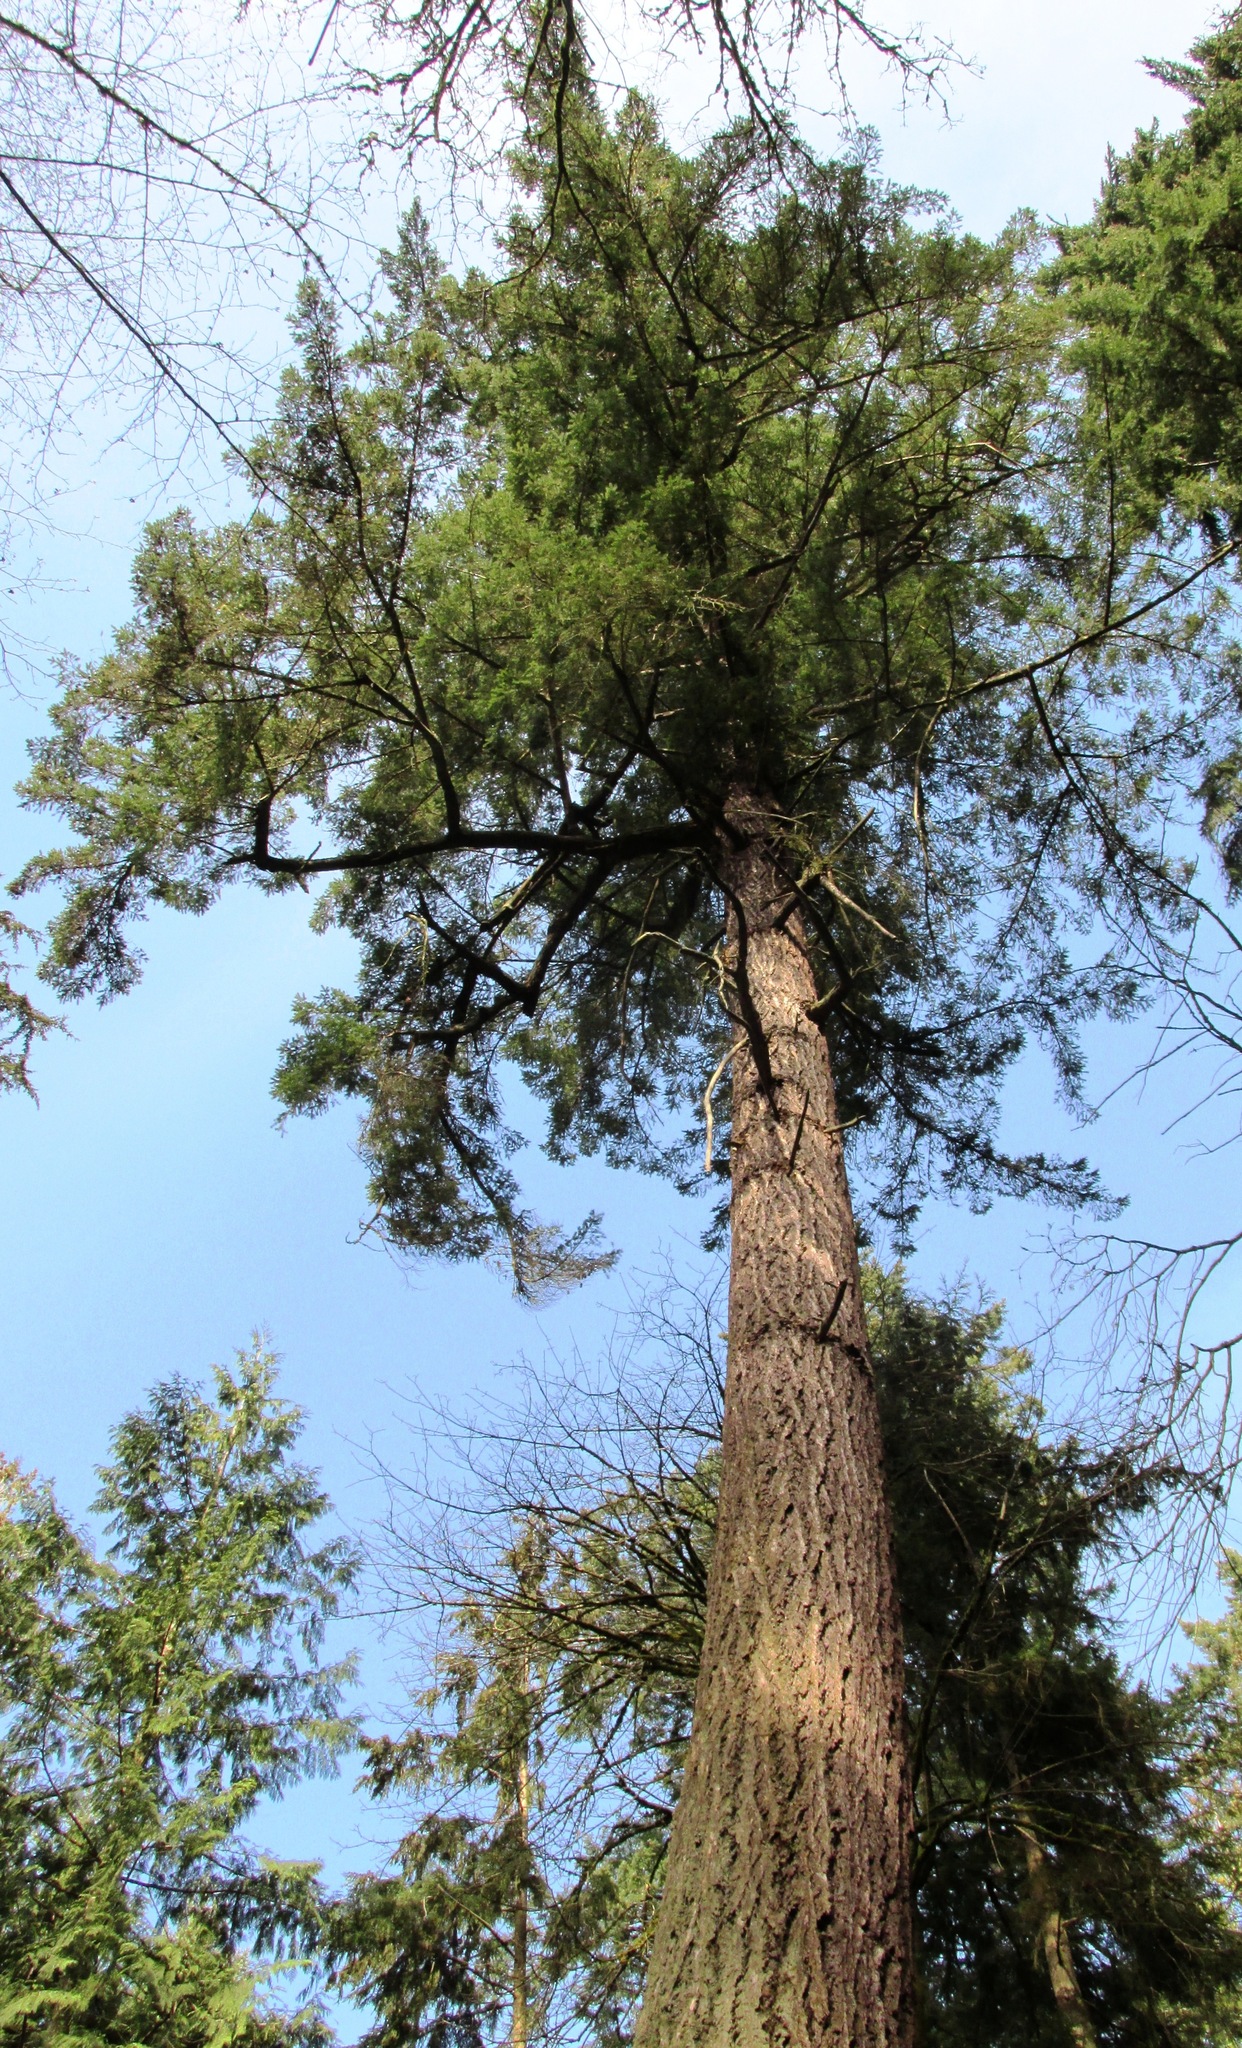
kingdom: Plantae
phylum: Tracheophyta
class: Pinopsida
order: Pinales
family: Pinaceae
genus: Pseudotsuga
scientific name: Pseudotsuga menziesii
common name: Douglas fir
